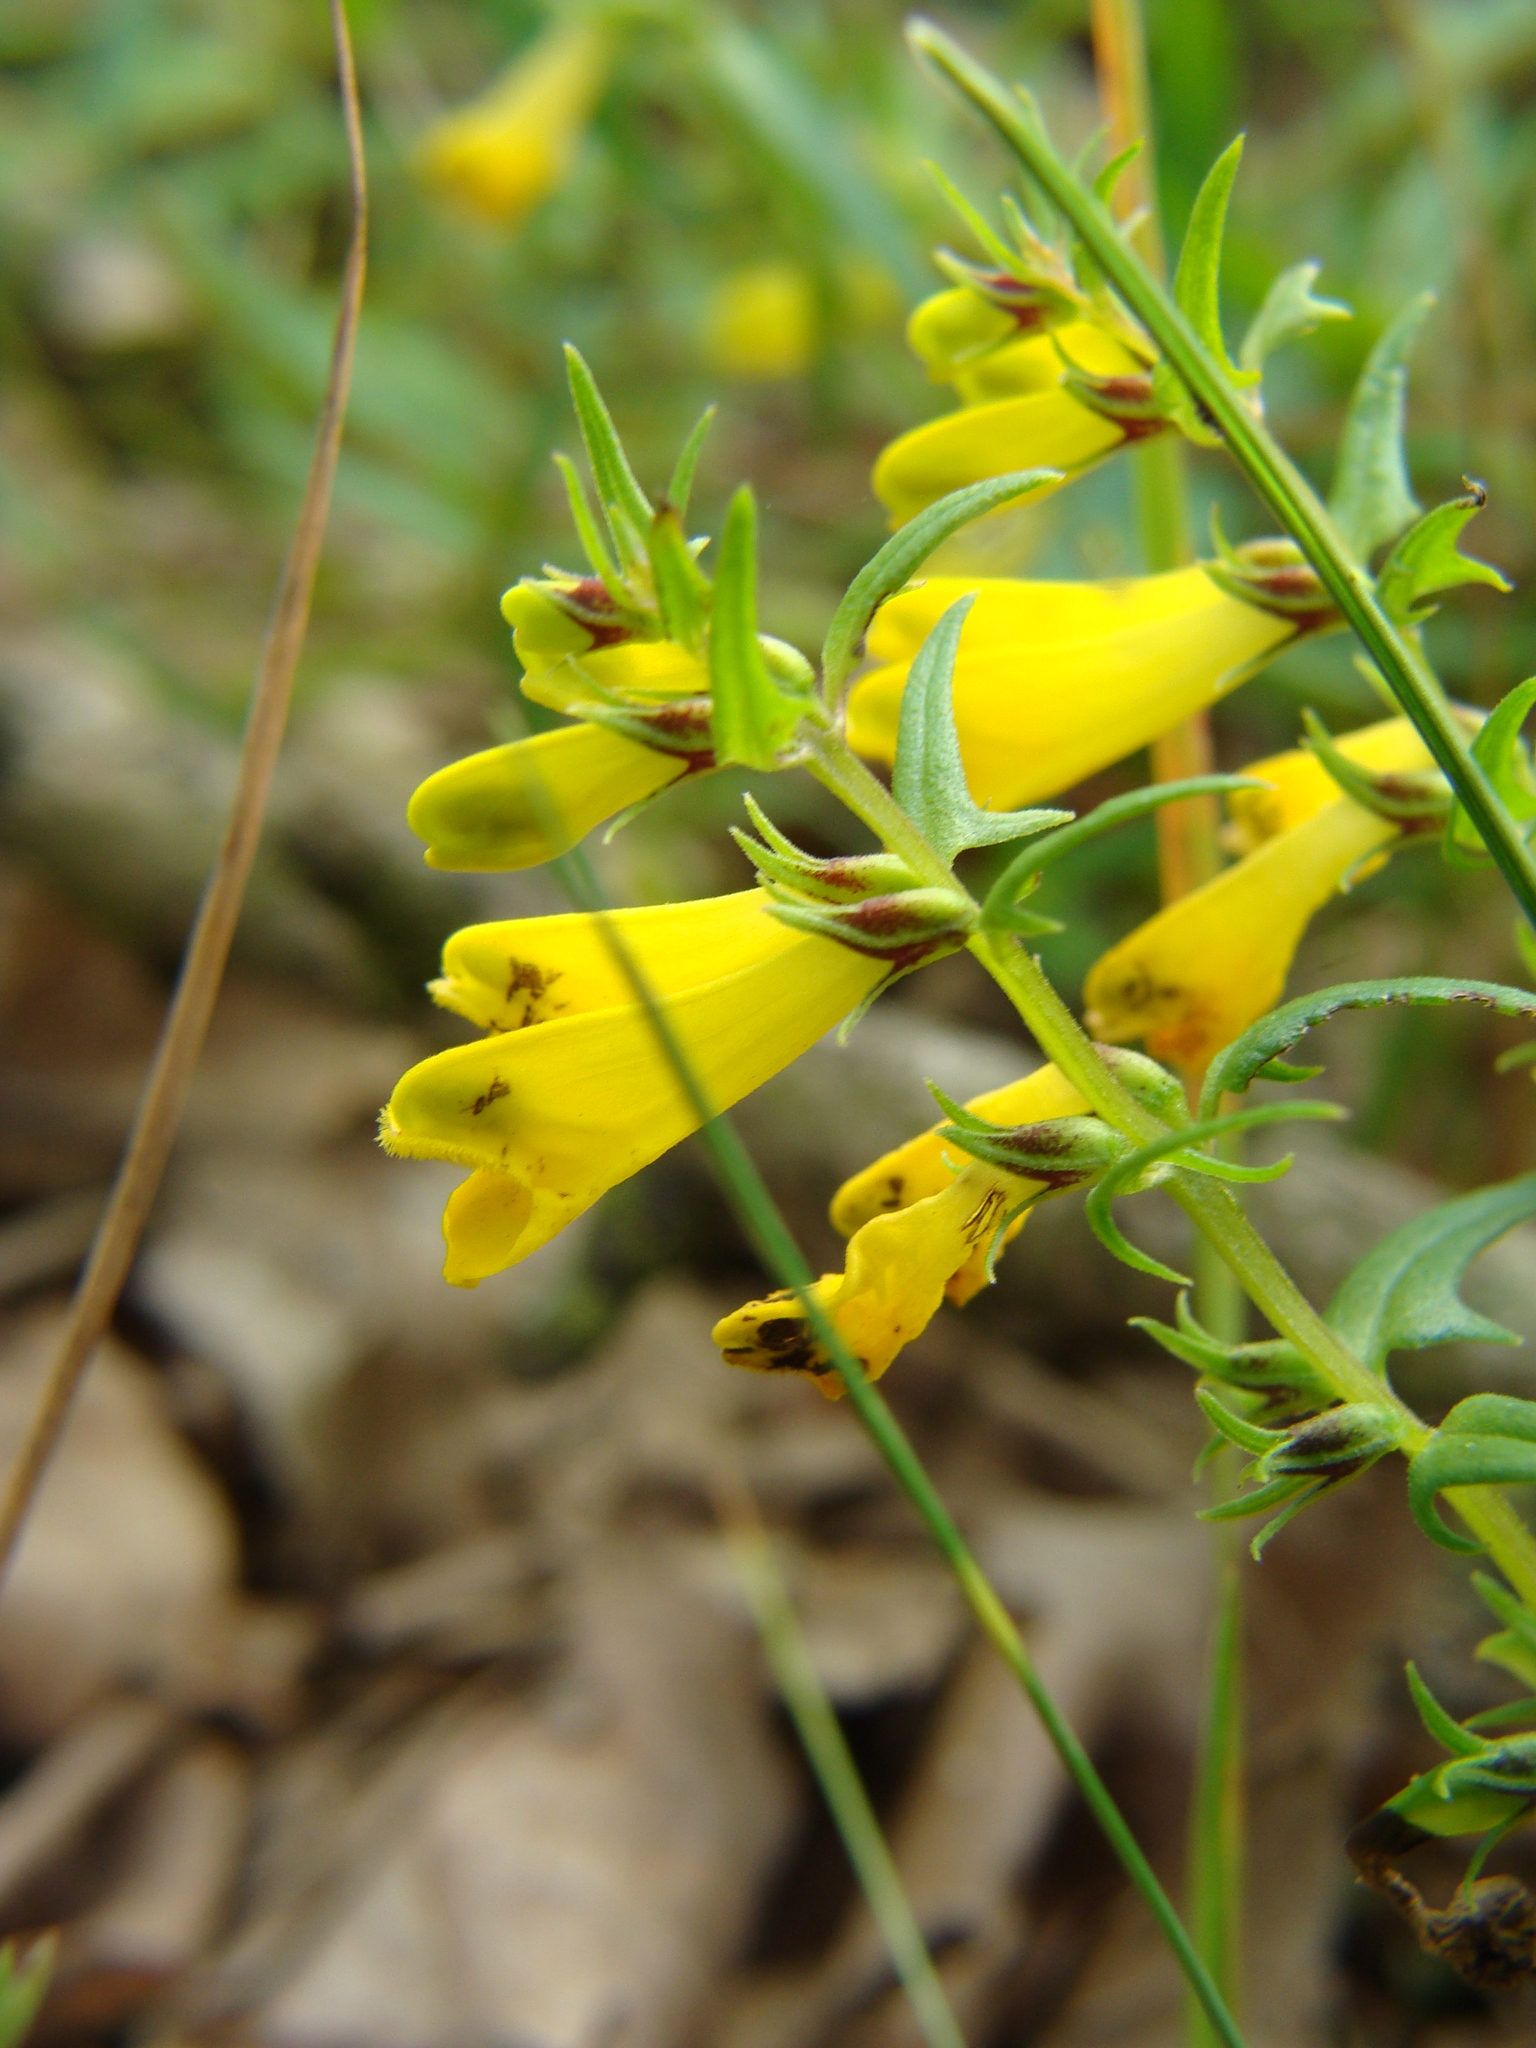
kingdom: Plantae
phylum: Tracheophyta
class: Magnoliopsida
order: Lamiales
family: Orobanchaceae
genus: Melampyrum
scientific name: Melampyrum pratense
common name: Common cow-wheat
